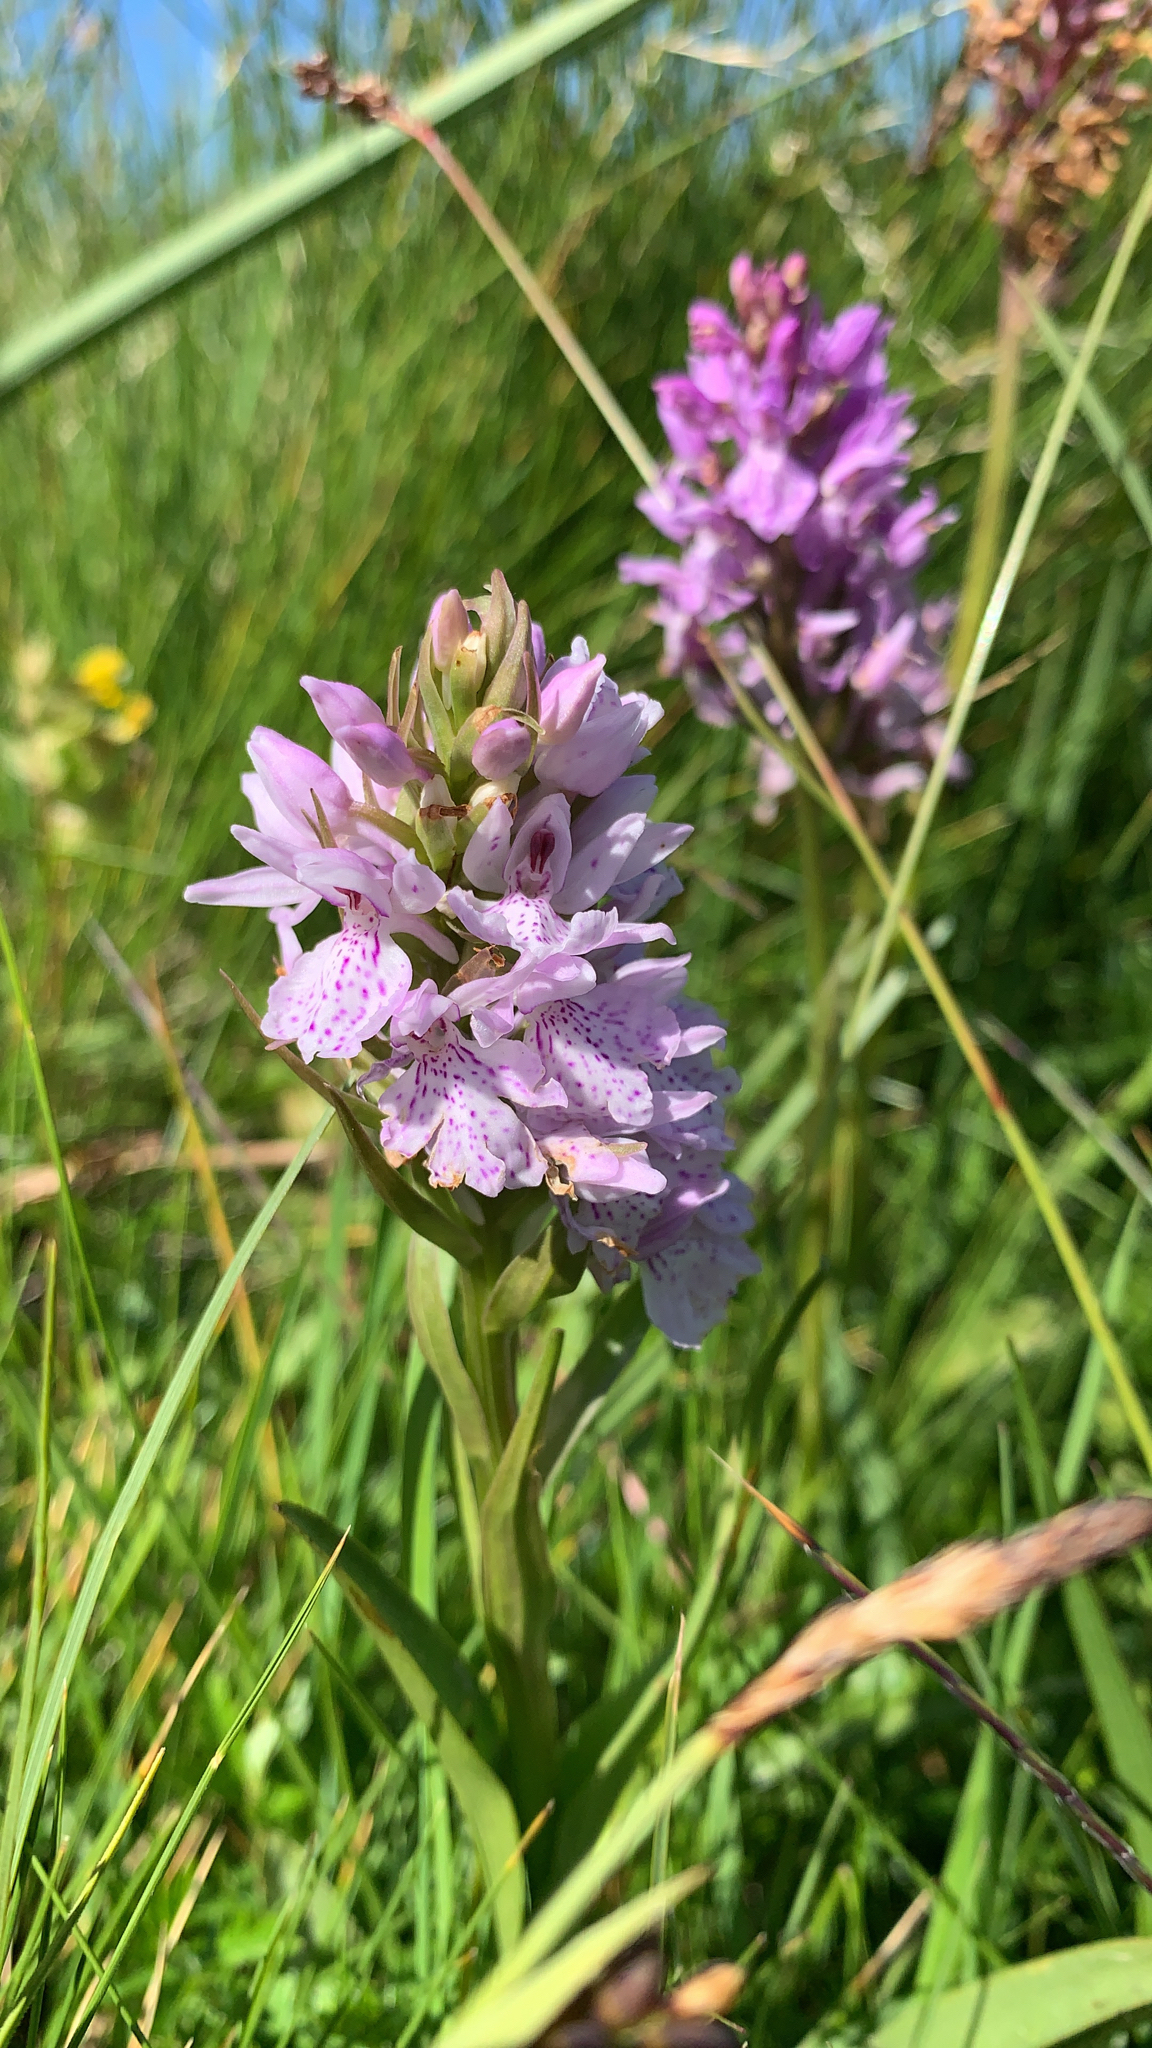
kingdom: Plantae
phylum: Tracheophyta
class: Liliopsida
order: Asparagales
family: Orchidaceae
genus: Dactylorhiza
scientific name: Dactylorhiza maculata
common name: Heath spotted-orchid
